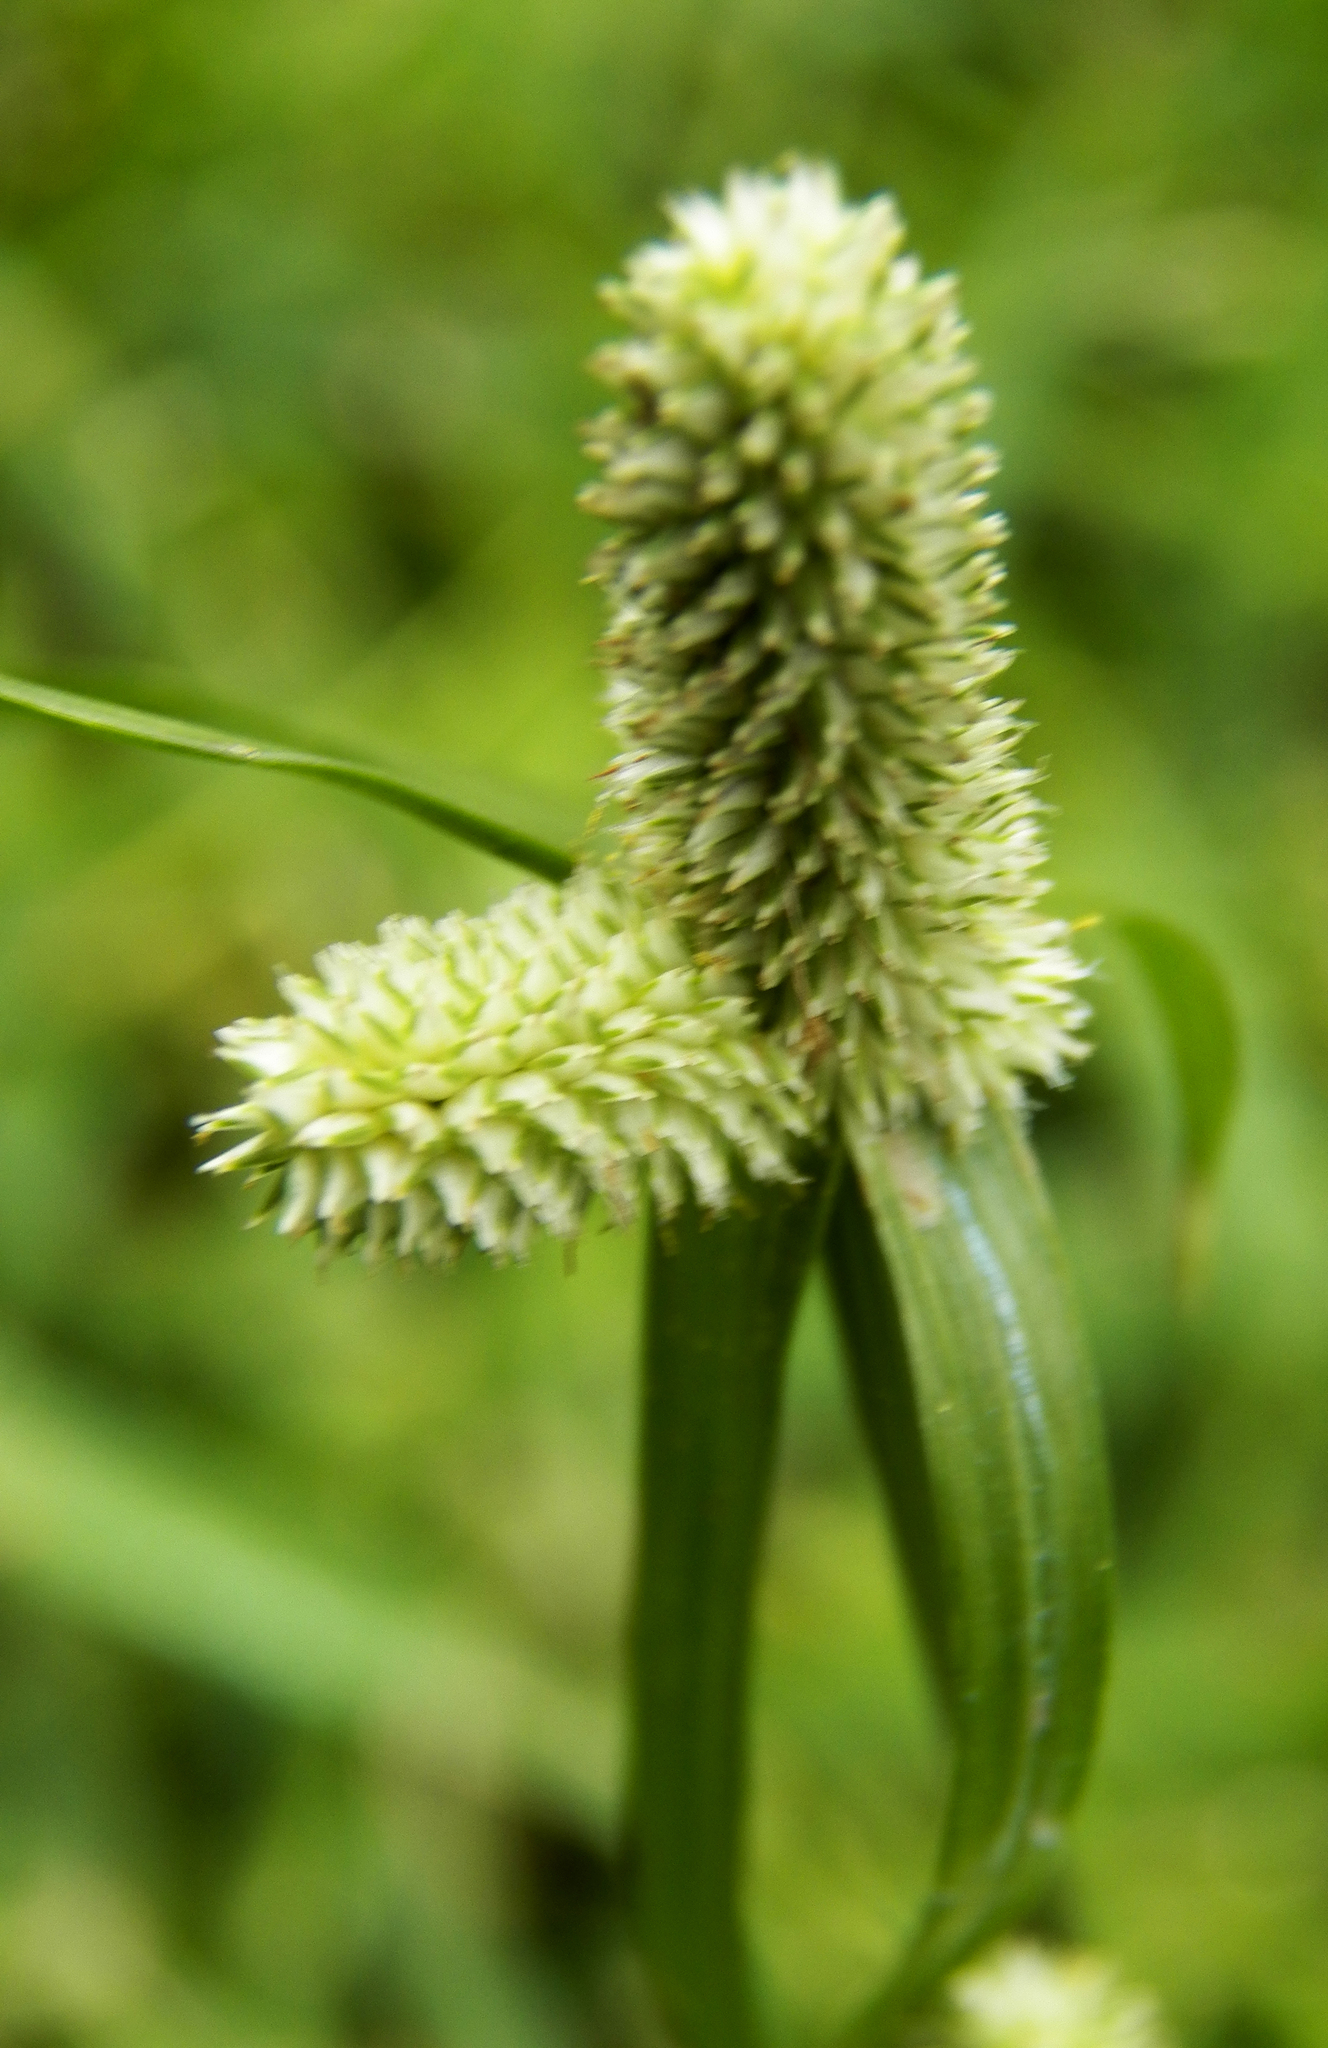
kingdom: Plantae
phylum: Tracheophyta
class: Liliopsida
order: Poales
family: Cyperaceae
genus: Cyperus
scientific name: Cyperus sesquiflorus
